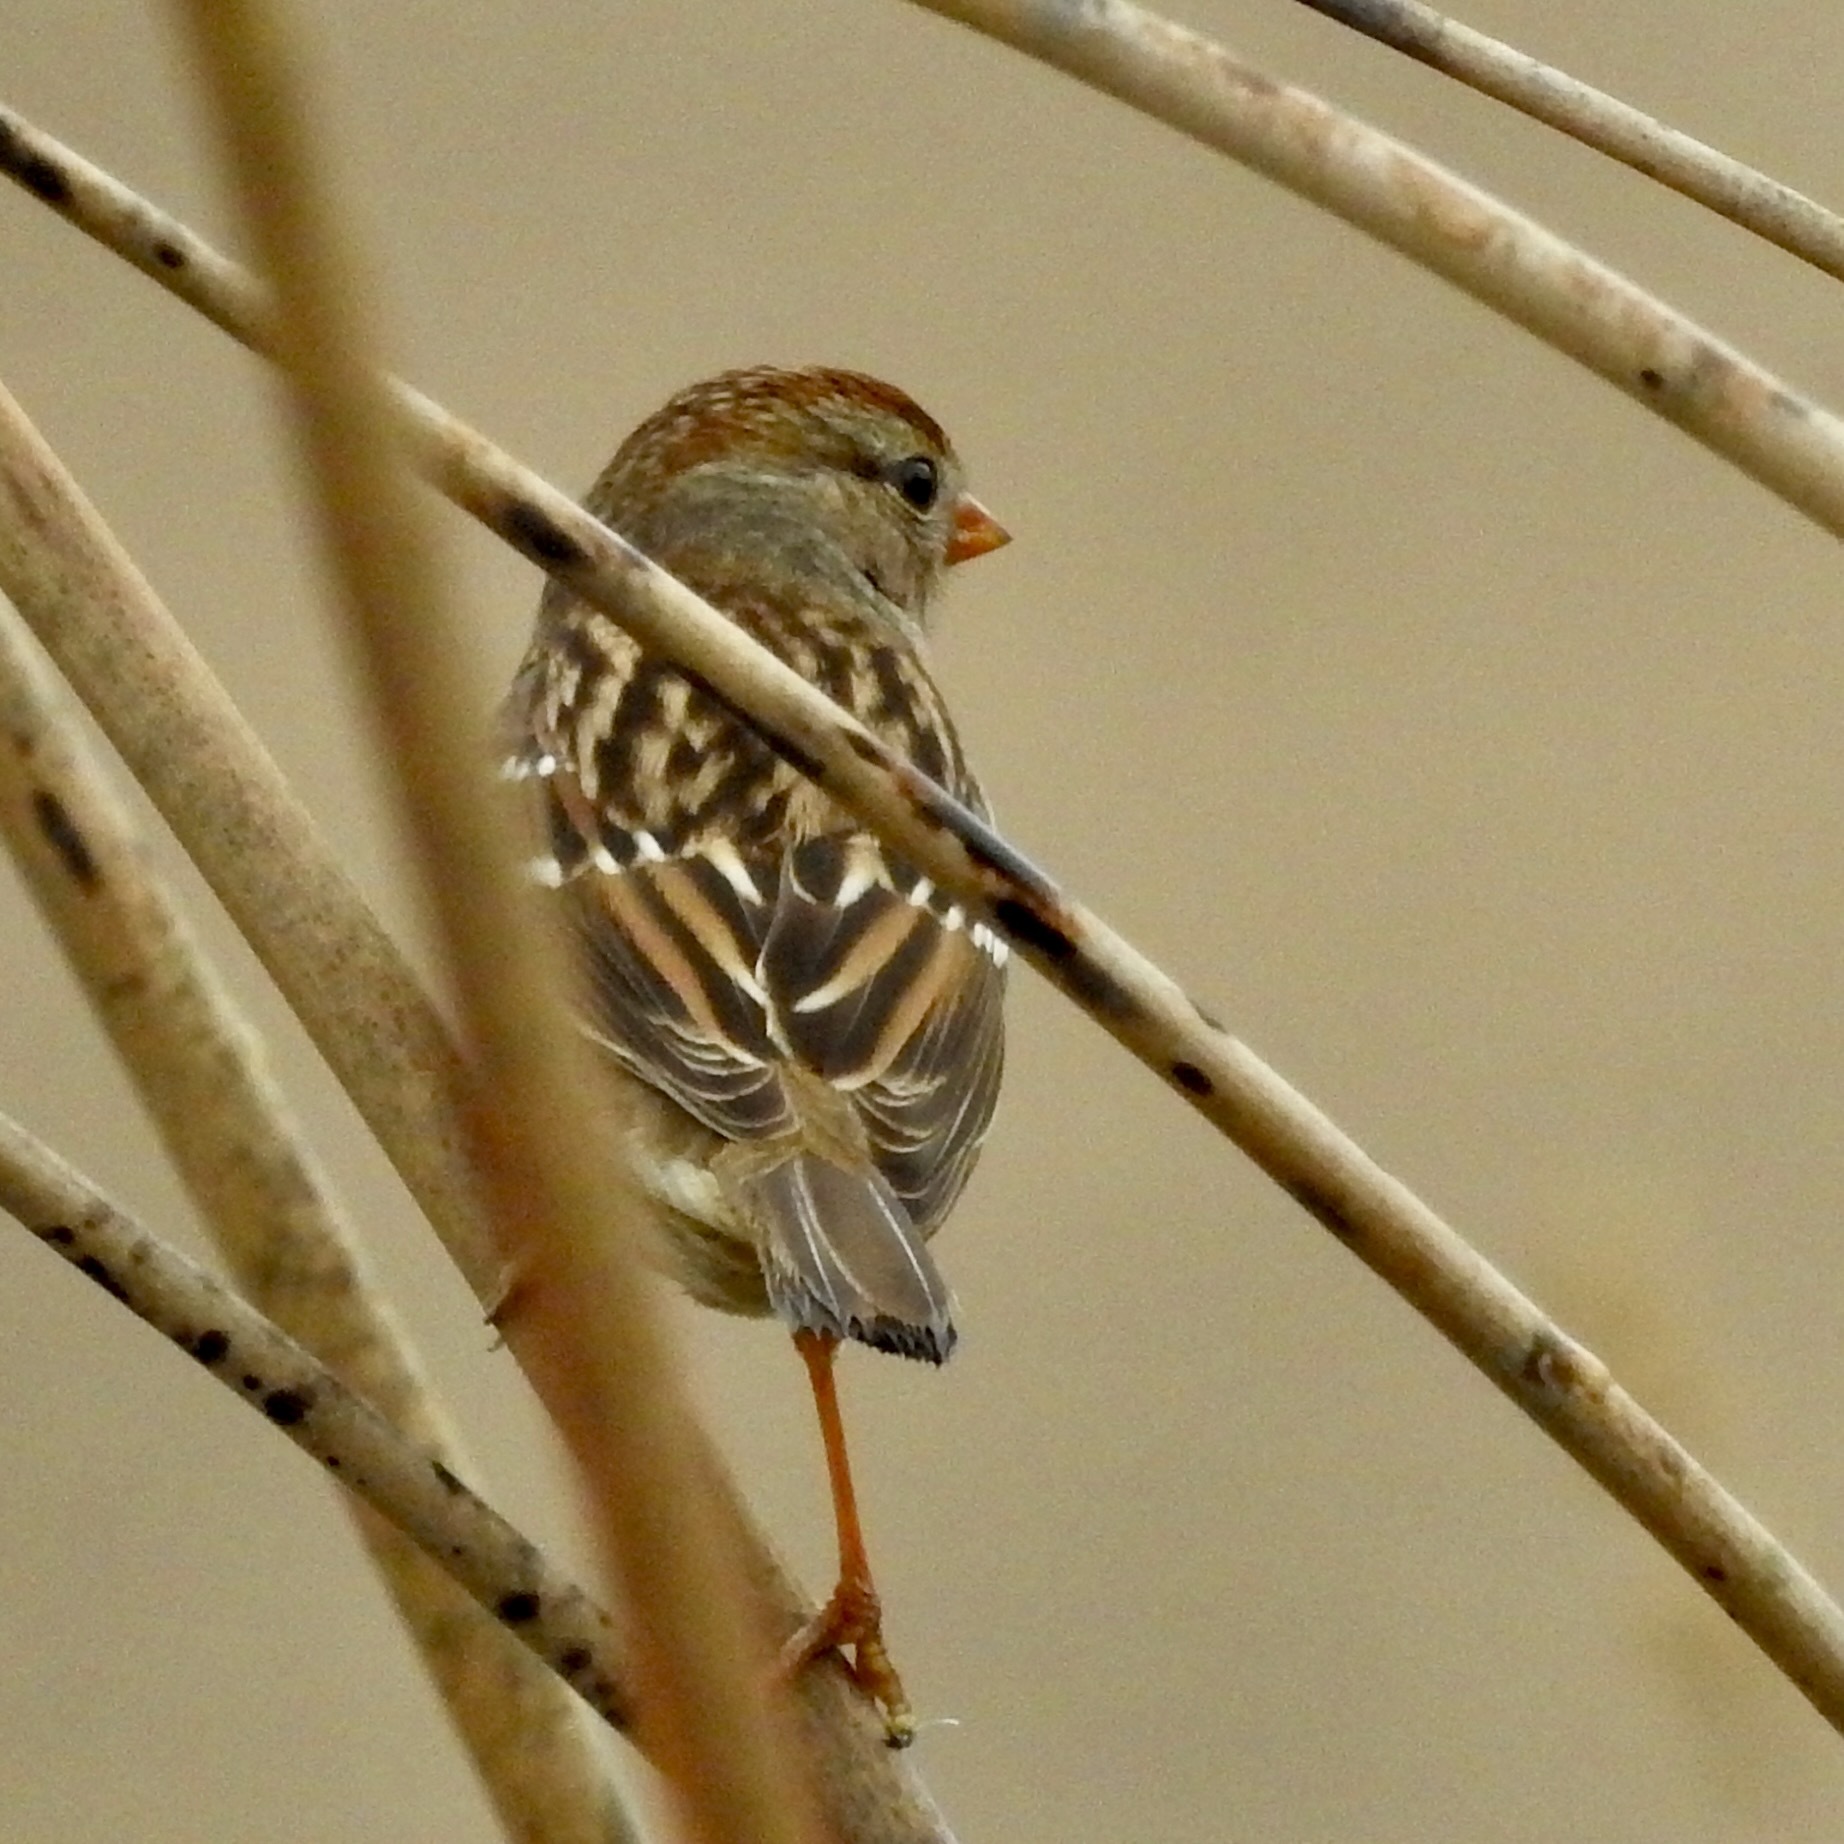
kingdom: Animalia
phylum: Chordata
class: Aves
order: Passeriformes
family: Passerellidae
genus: Zonotrichia
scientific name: Zonotrichia leucophrys
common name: White-crowned sparrow
